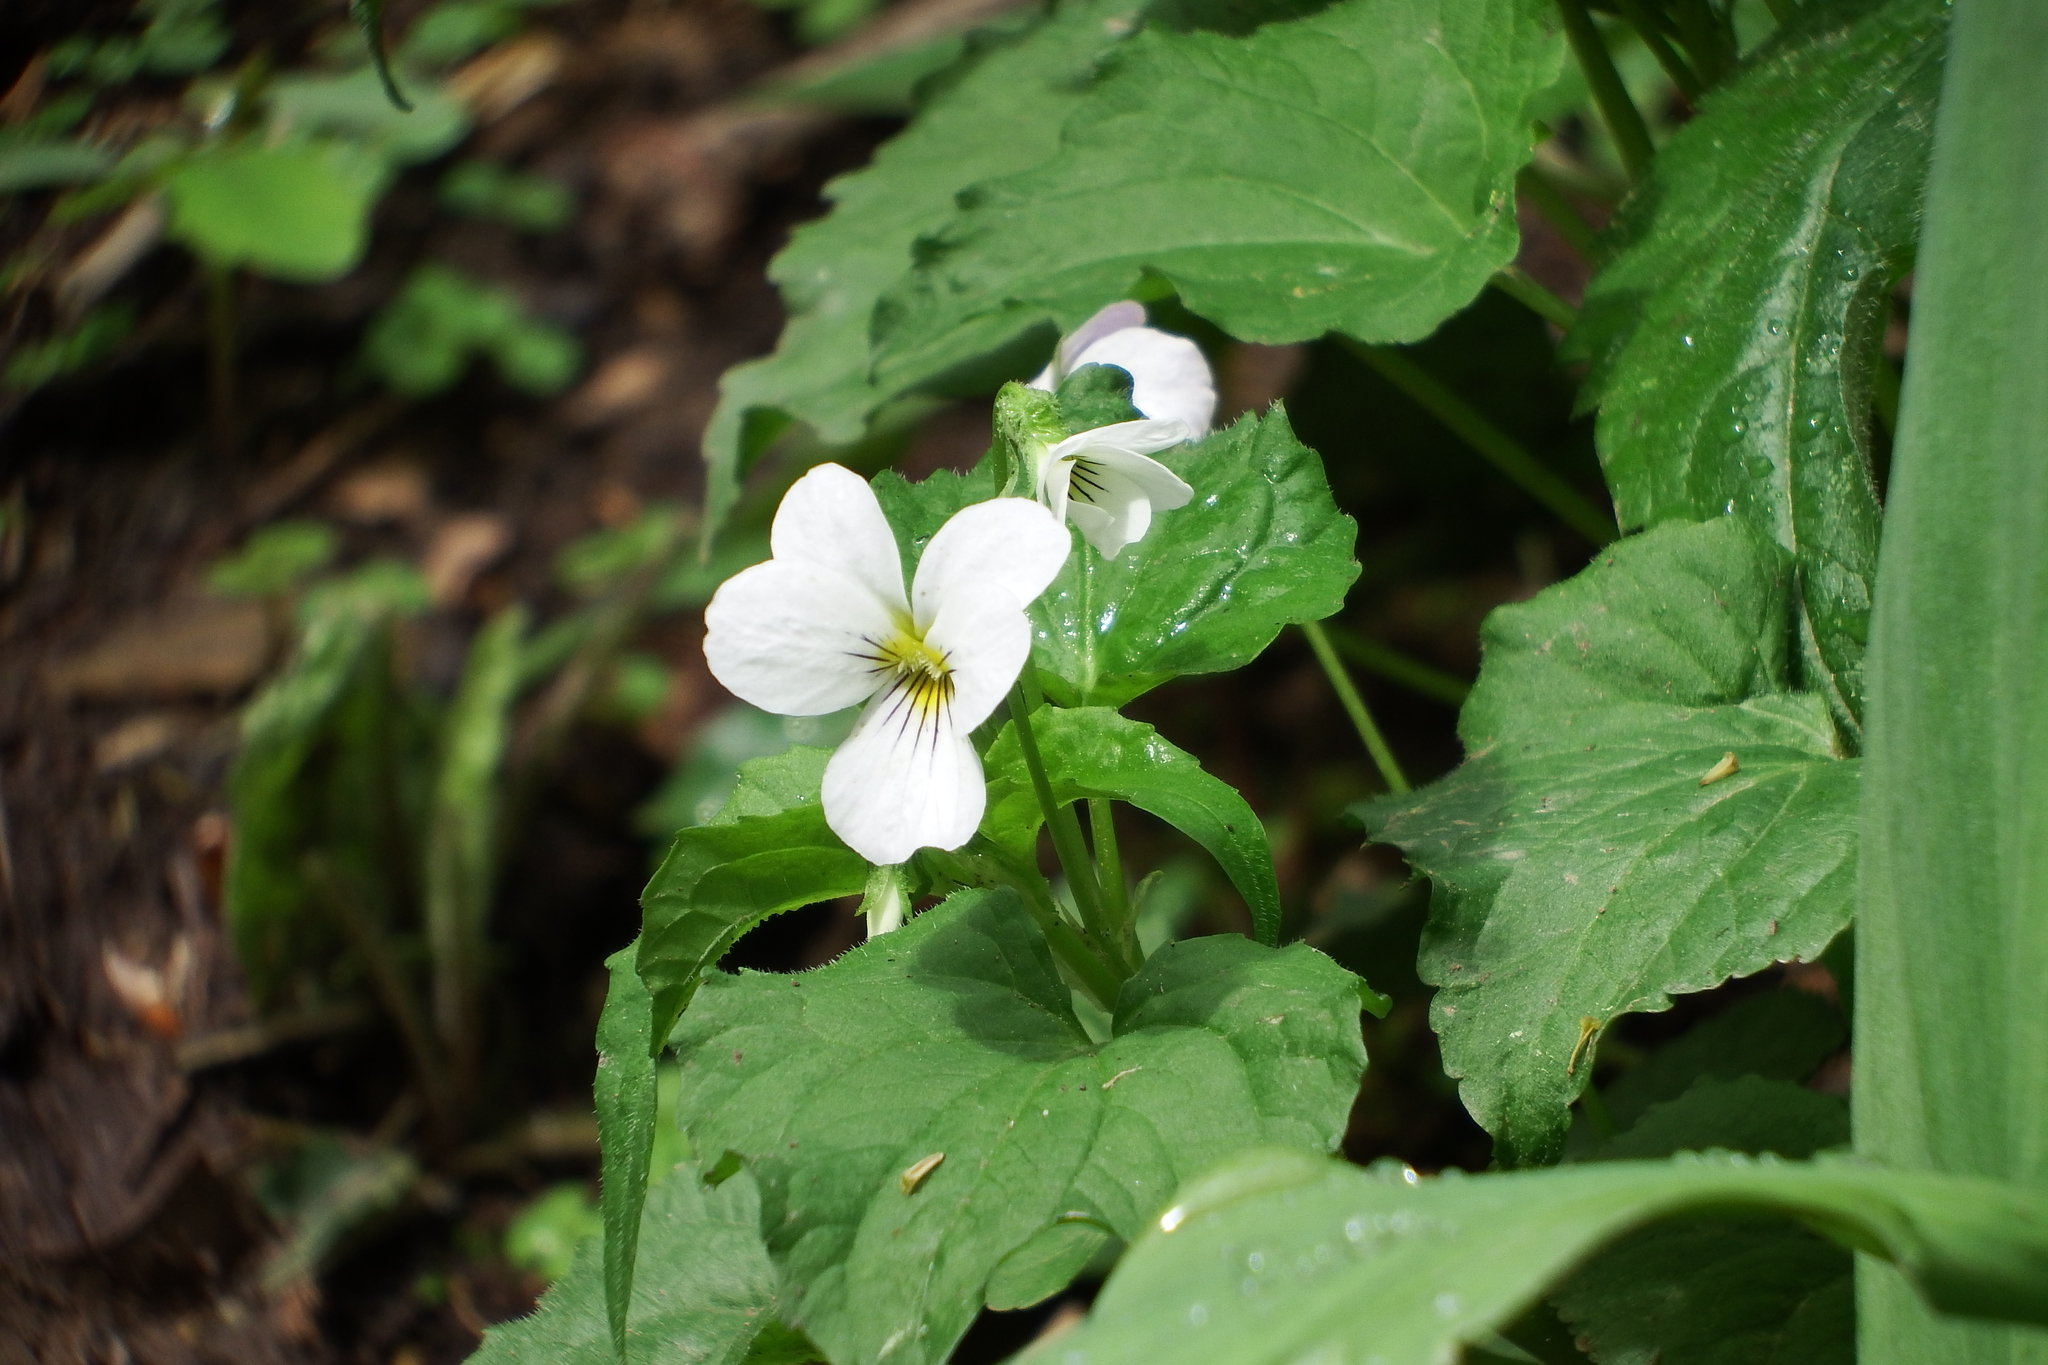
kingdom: Plantae
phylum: Tracheophyta
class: Magnoliopsida
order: Malpighiales
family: Violaceae
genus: Viola
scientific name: Viola canadensis
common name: Canada violet
